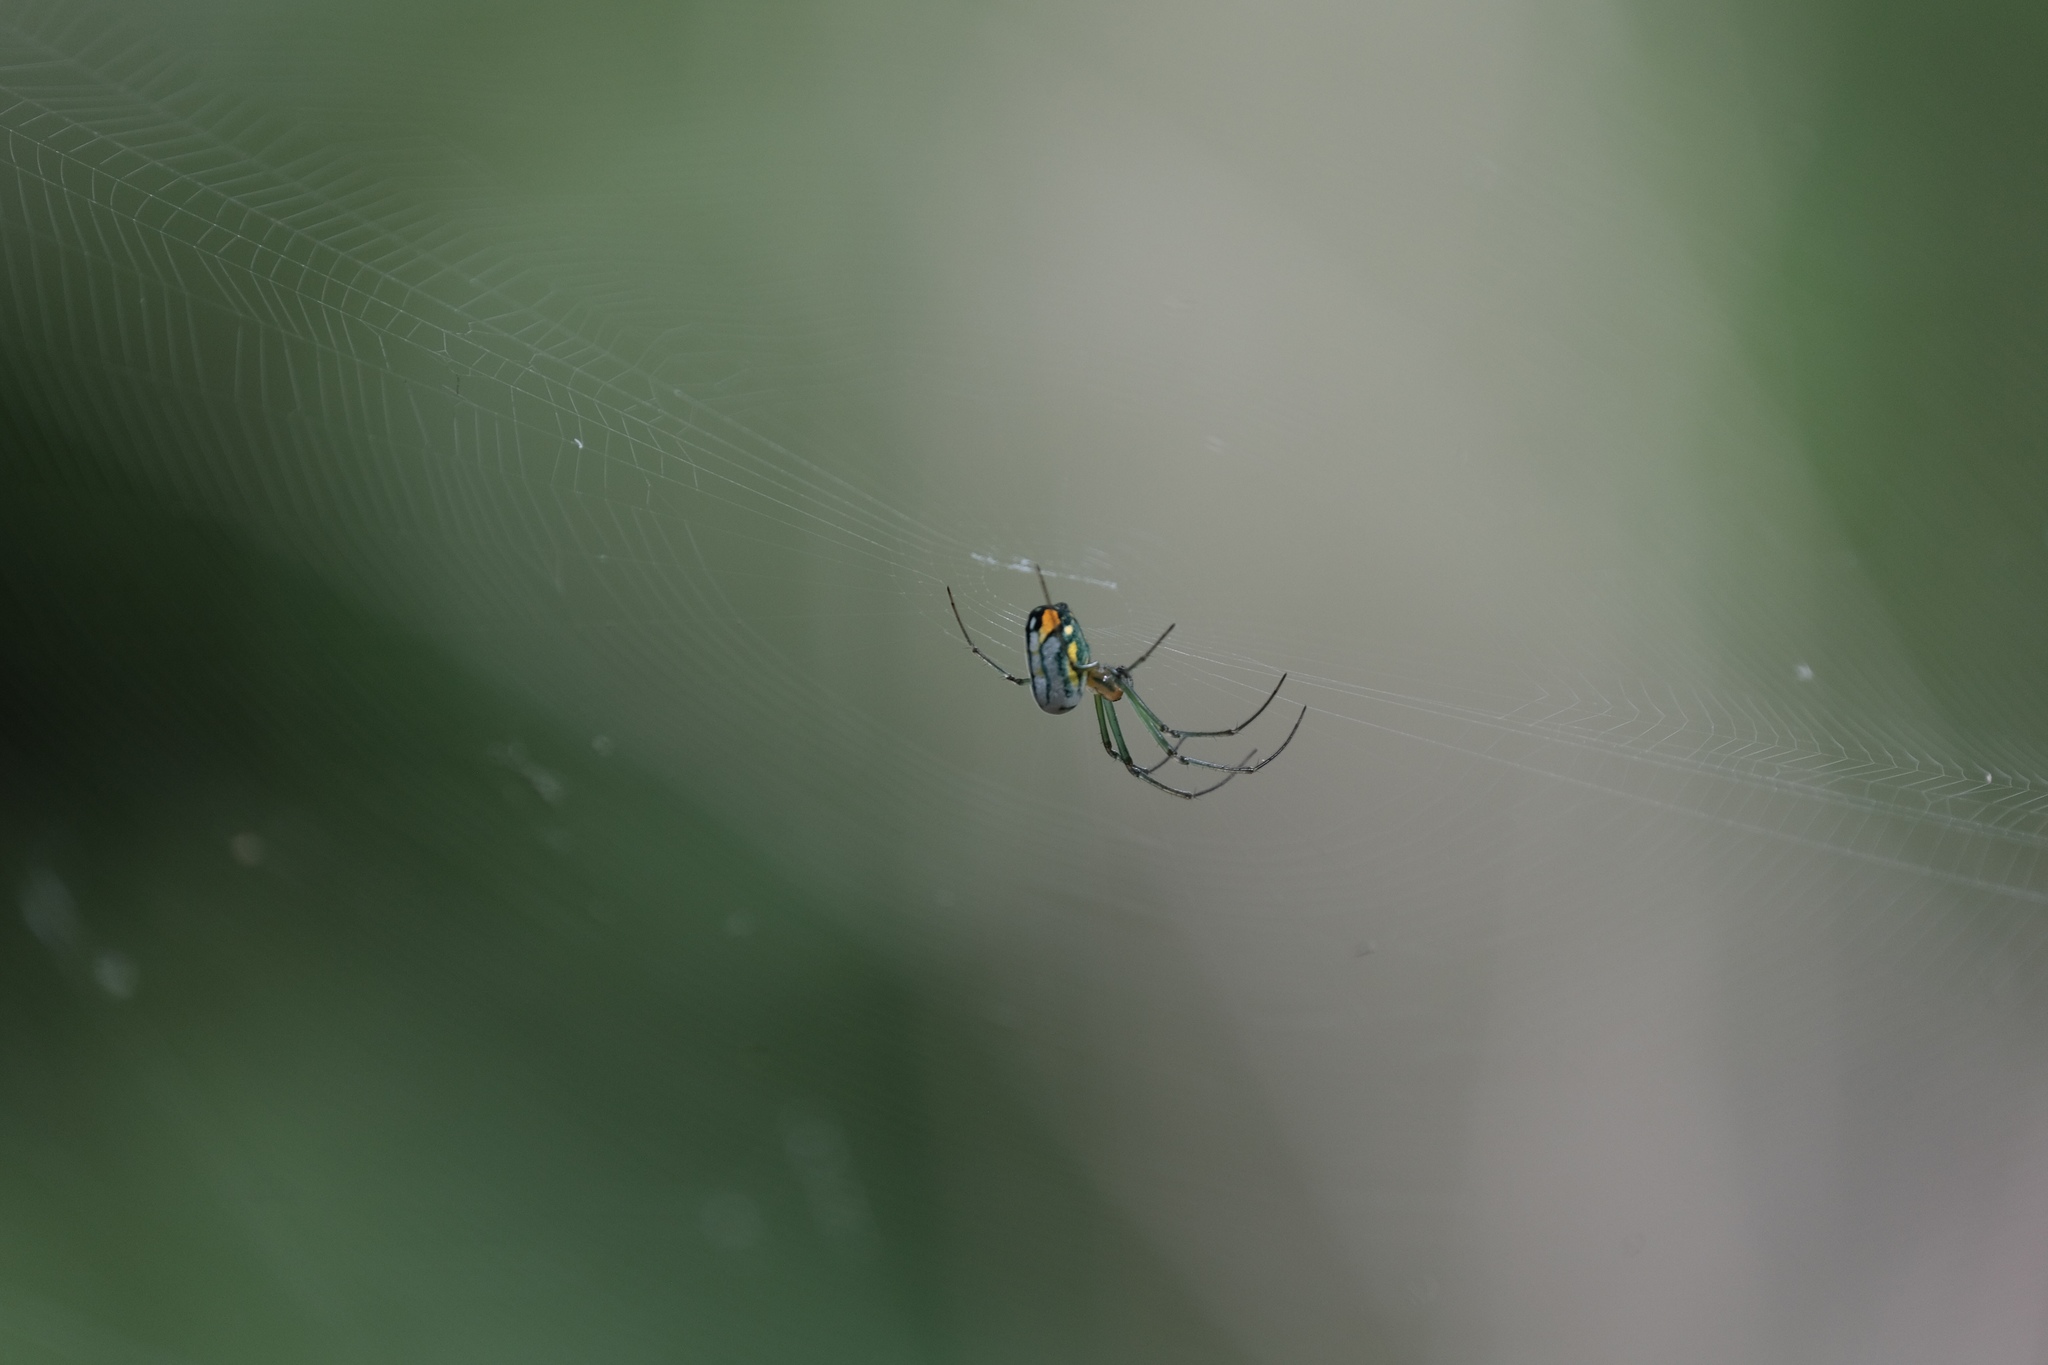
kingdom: Animalia
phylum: Arthropoda
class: Arachnida
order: Araneae
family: Tetragnathidae
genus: Leucauge
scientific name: Leucauge argyrobapta
